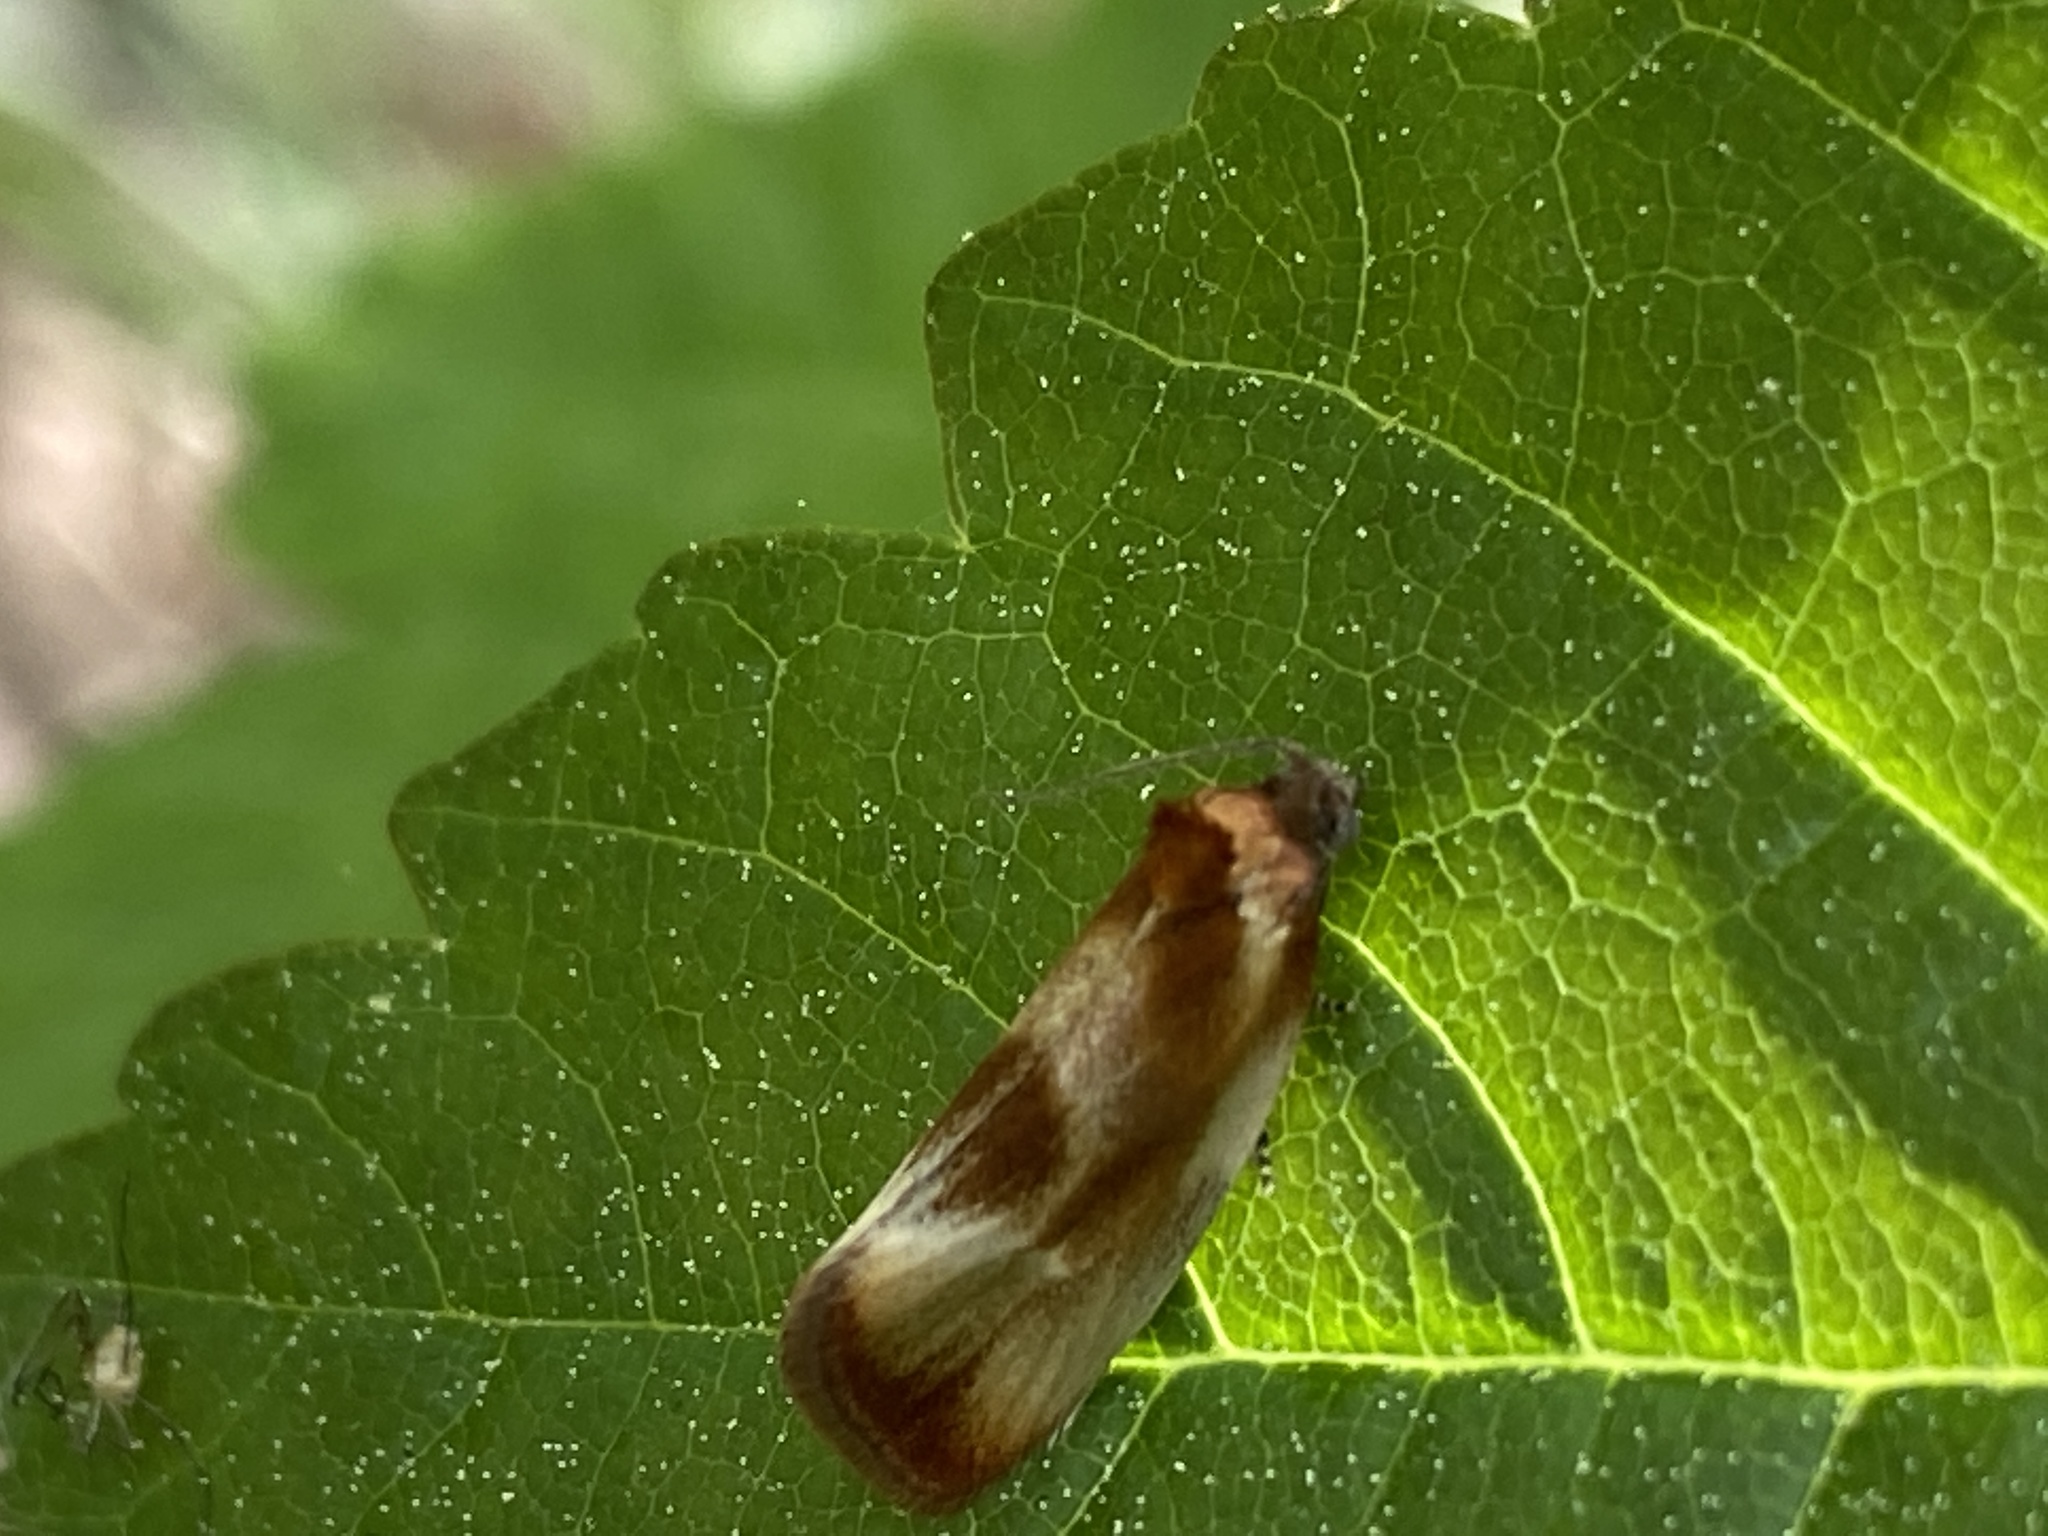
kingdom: Animalia
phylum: Arthropoda
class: Insecta
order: Lepidoptera
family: Tortricidae
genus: Eulia
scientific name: Eulia ministrana
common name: Brassy twist
